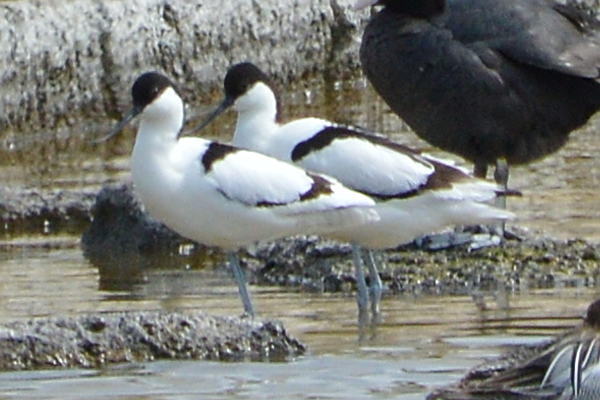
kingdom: Animalia
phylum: Chordata
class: Aves
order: Charadriiformes
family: Recurvirostridae
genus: Recurvirostra
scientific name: Recurvirostra avosetta
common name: Pied avocet
